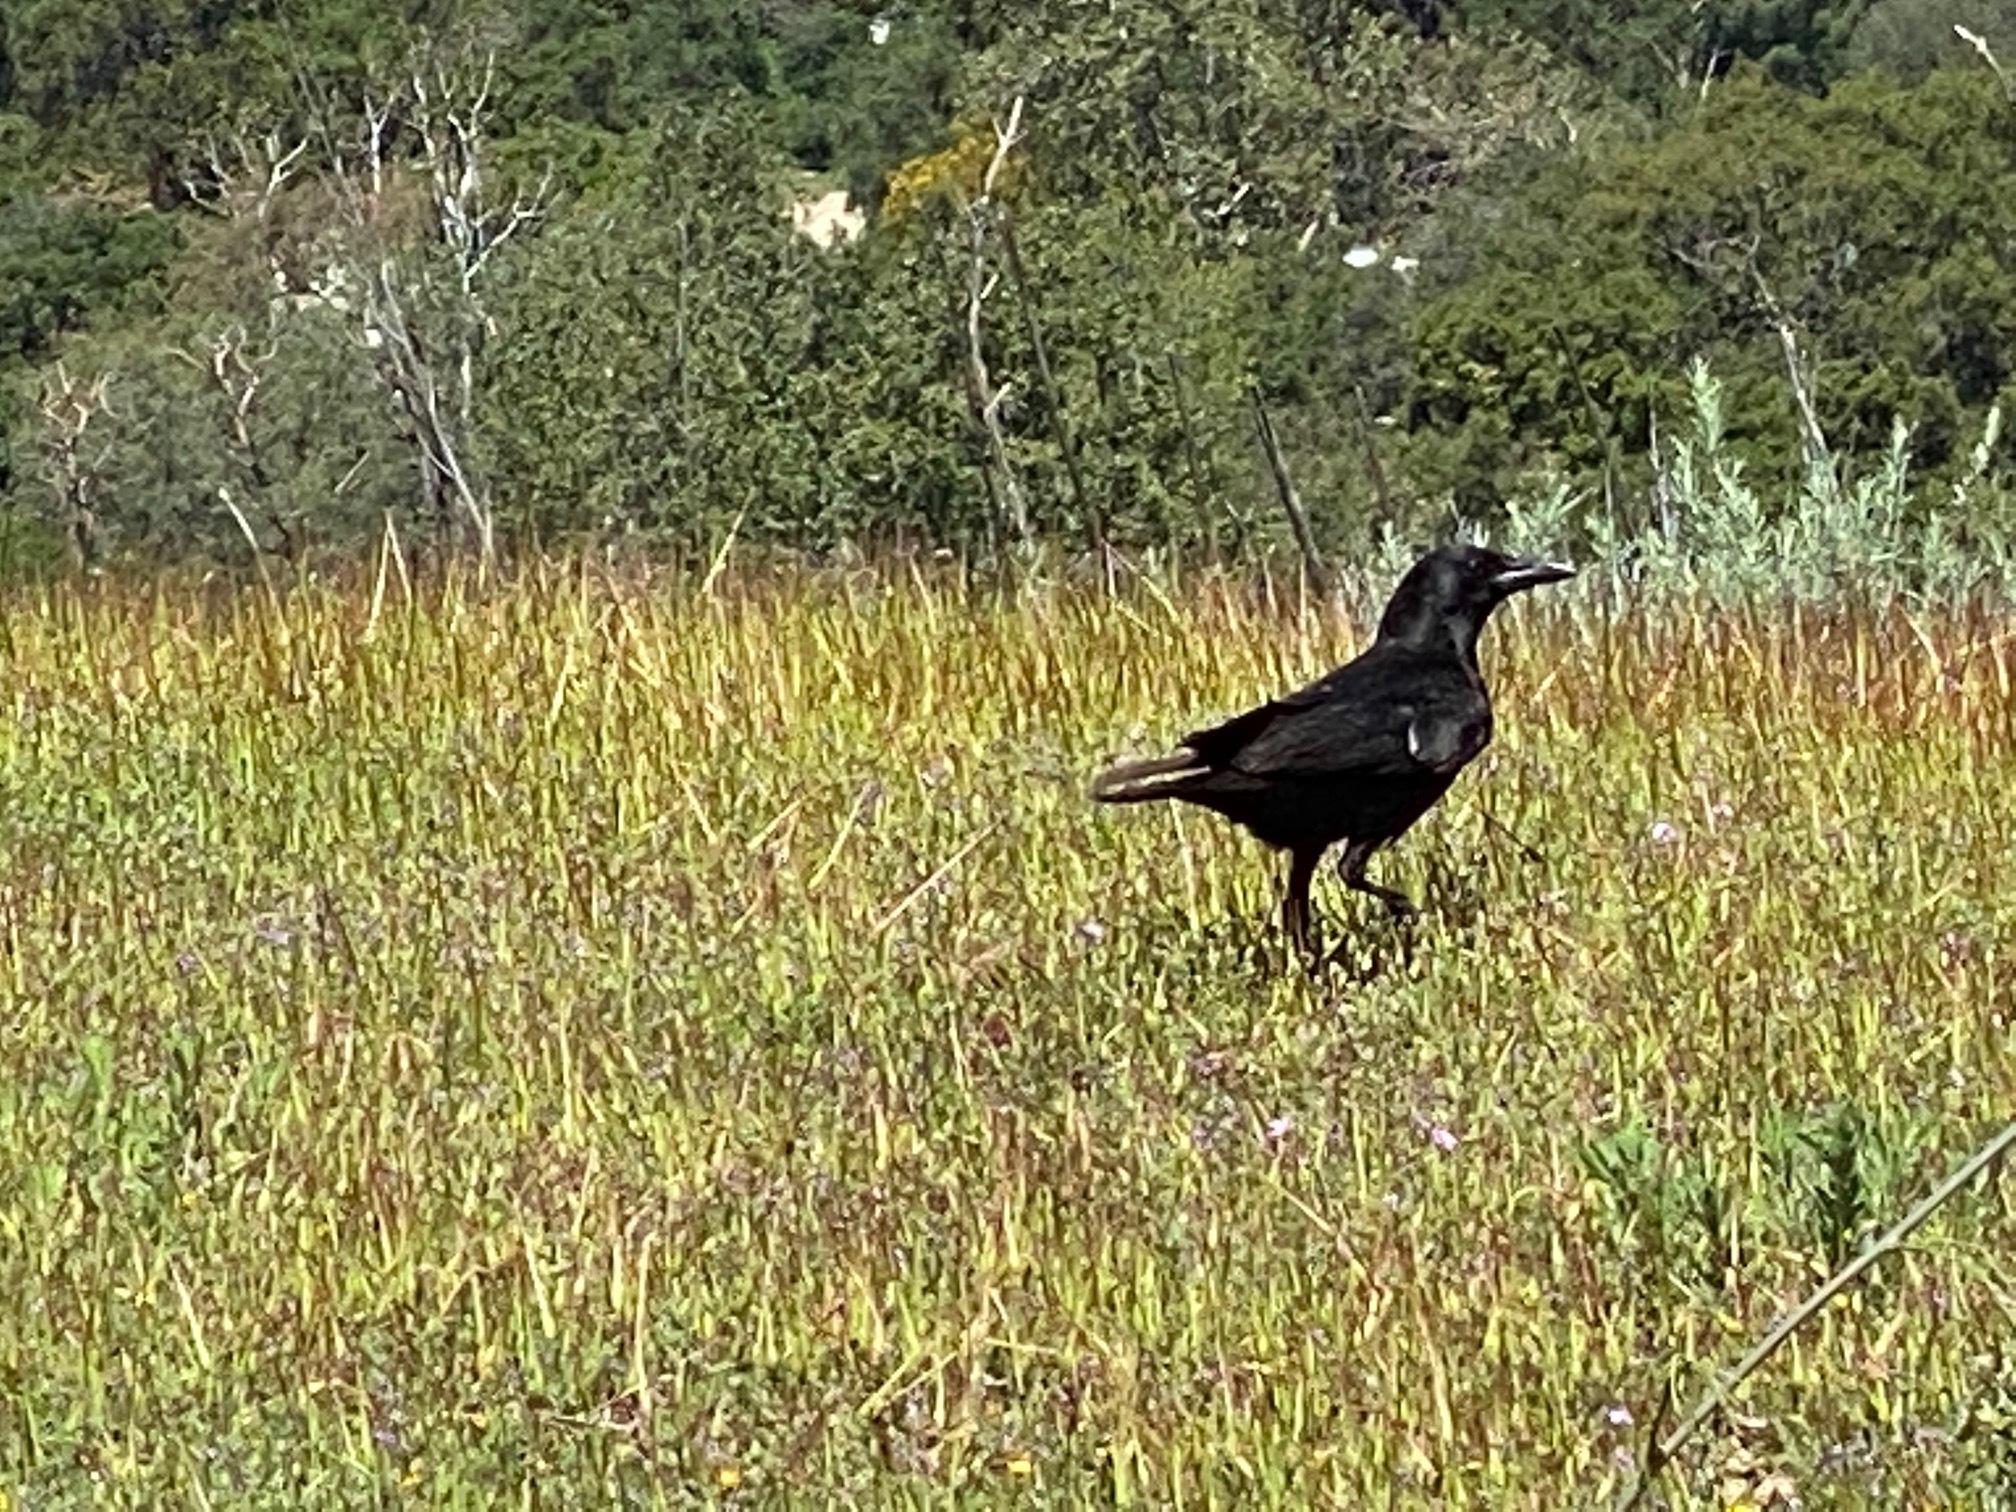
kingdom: Animalia
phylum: Chordata
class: Aves
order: Passeriformes
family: Corvidae
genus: Corvus
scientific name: Corvus corax
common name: Common raven
